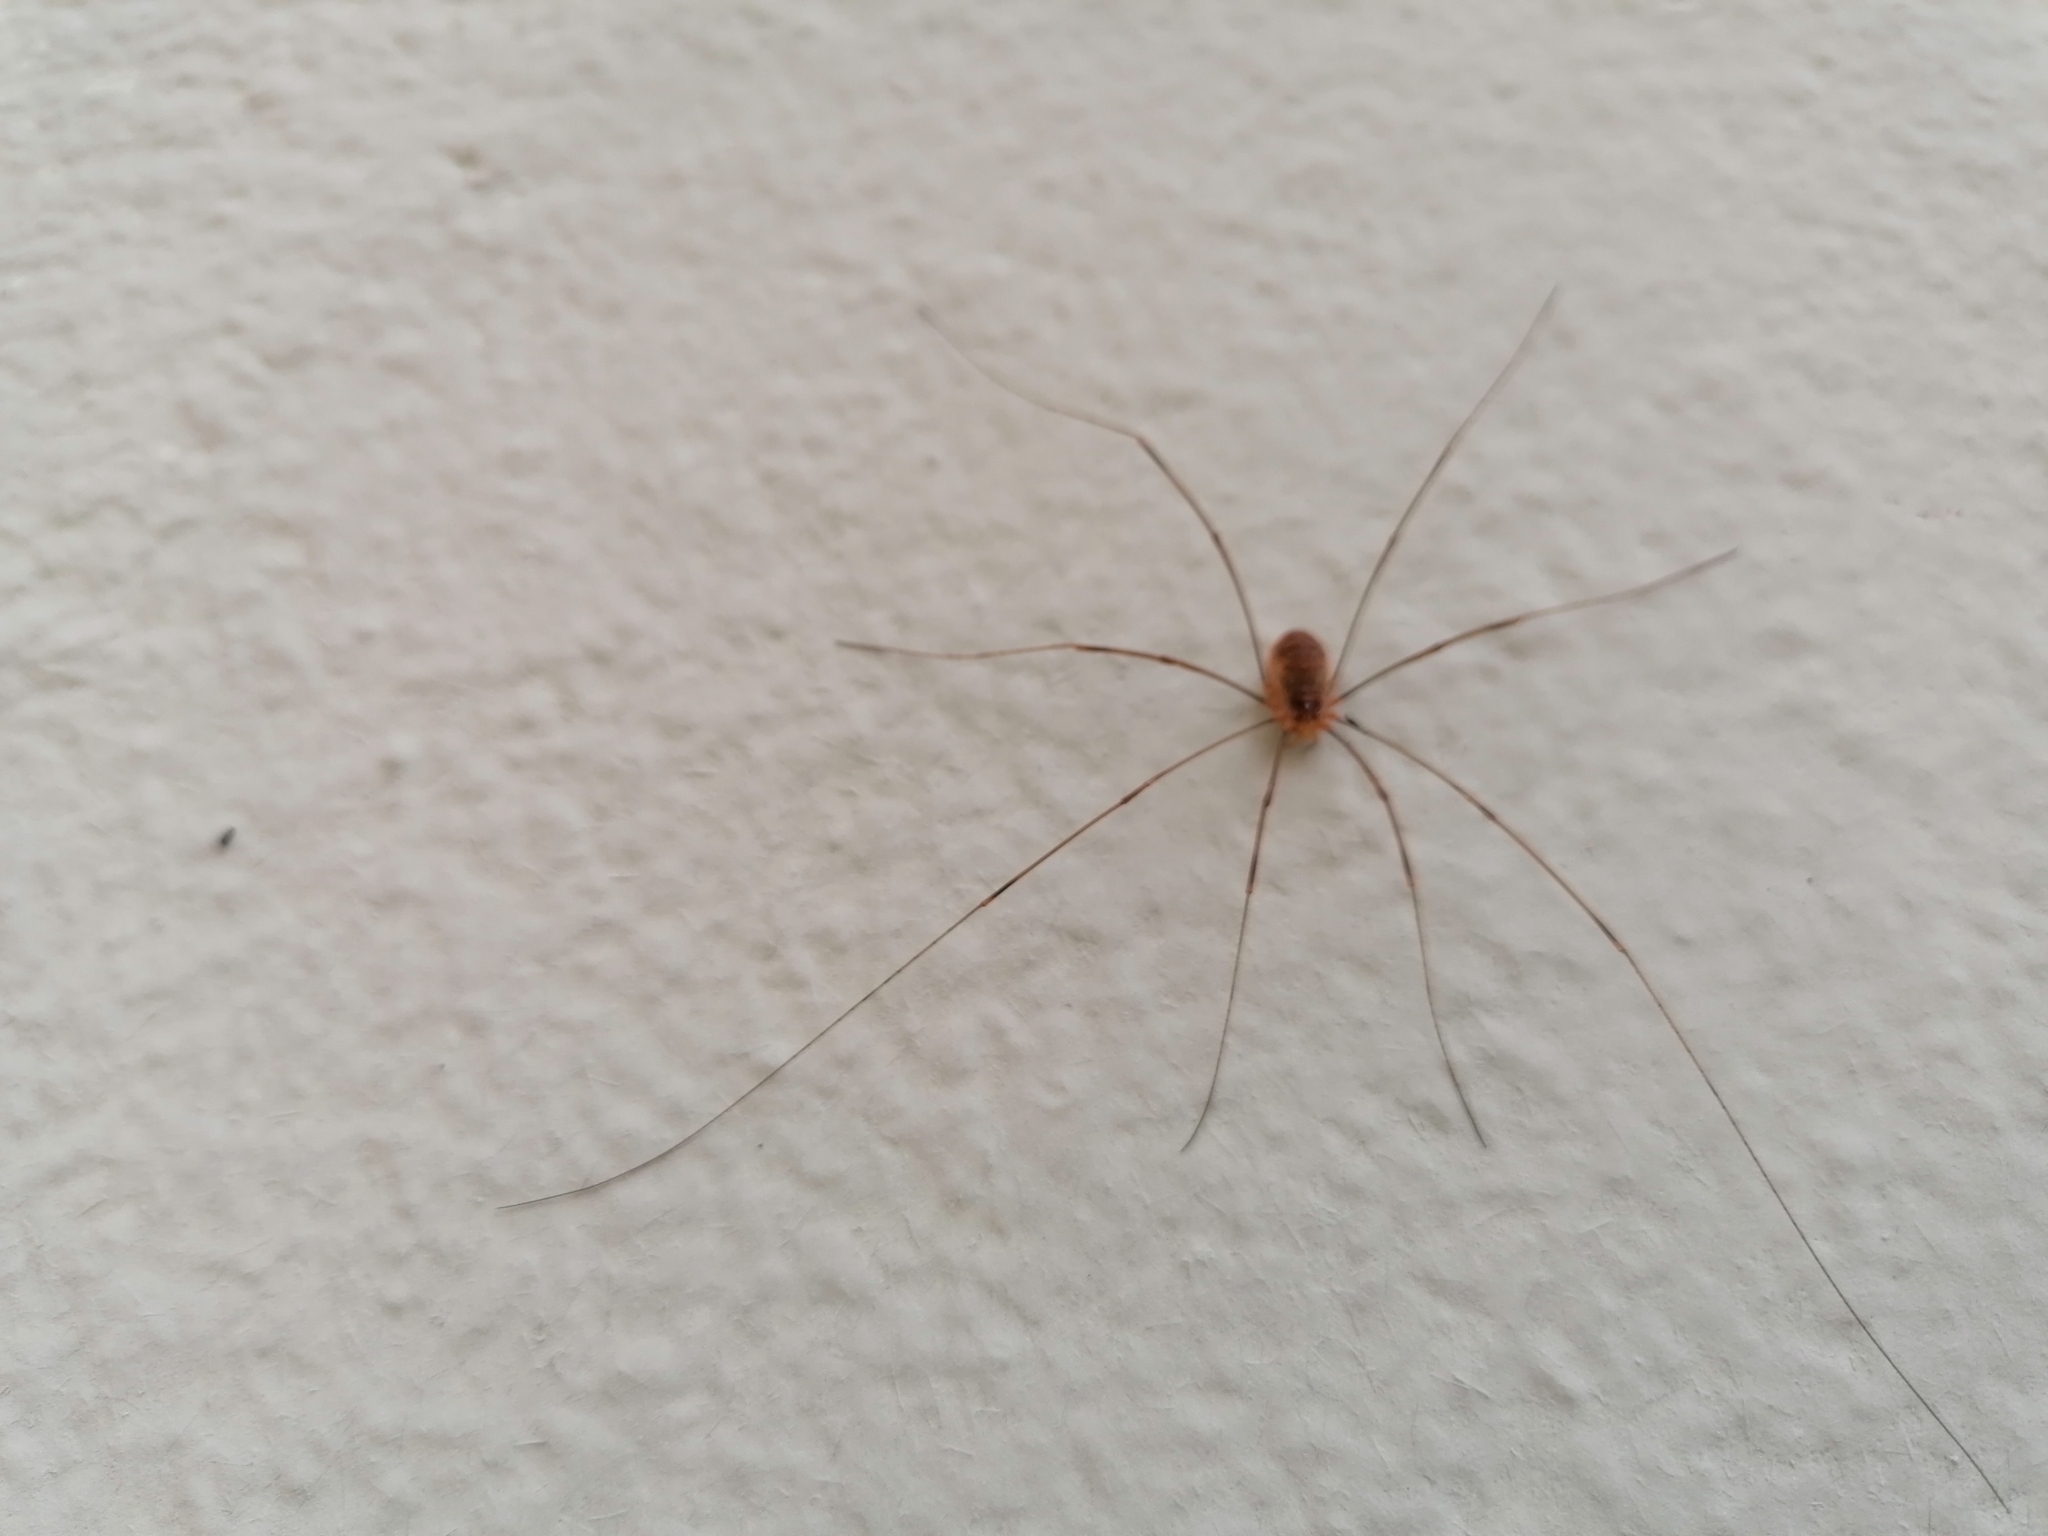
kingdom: Animalia
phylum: Arthropoda
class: Arachnida
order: Opiliones
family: Phalangiidae
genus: Opilio
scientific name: Opilio canestrinii
